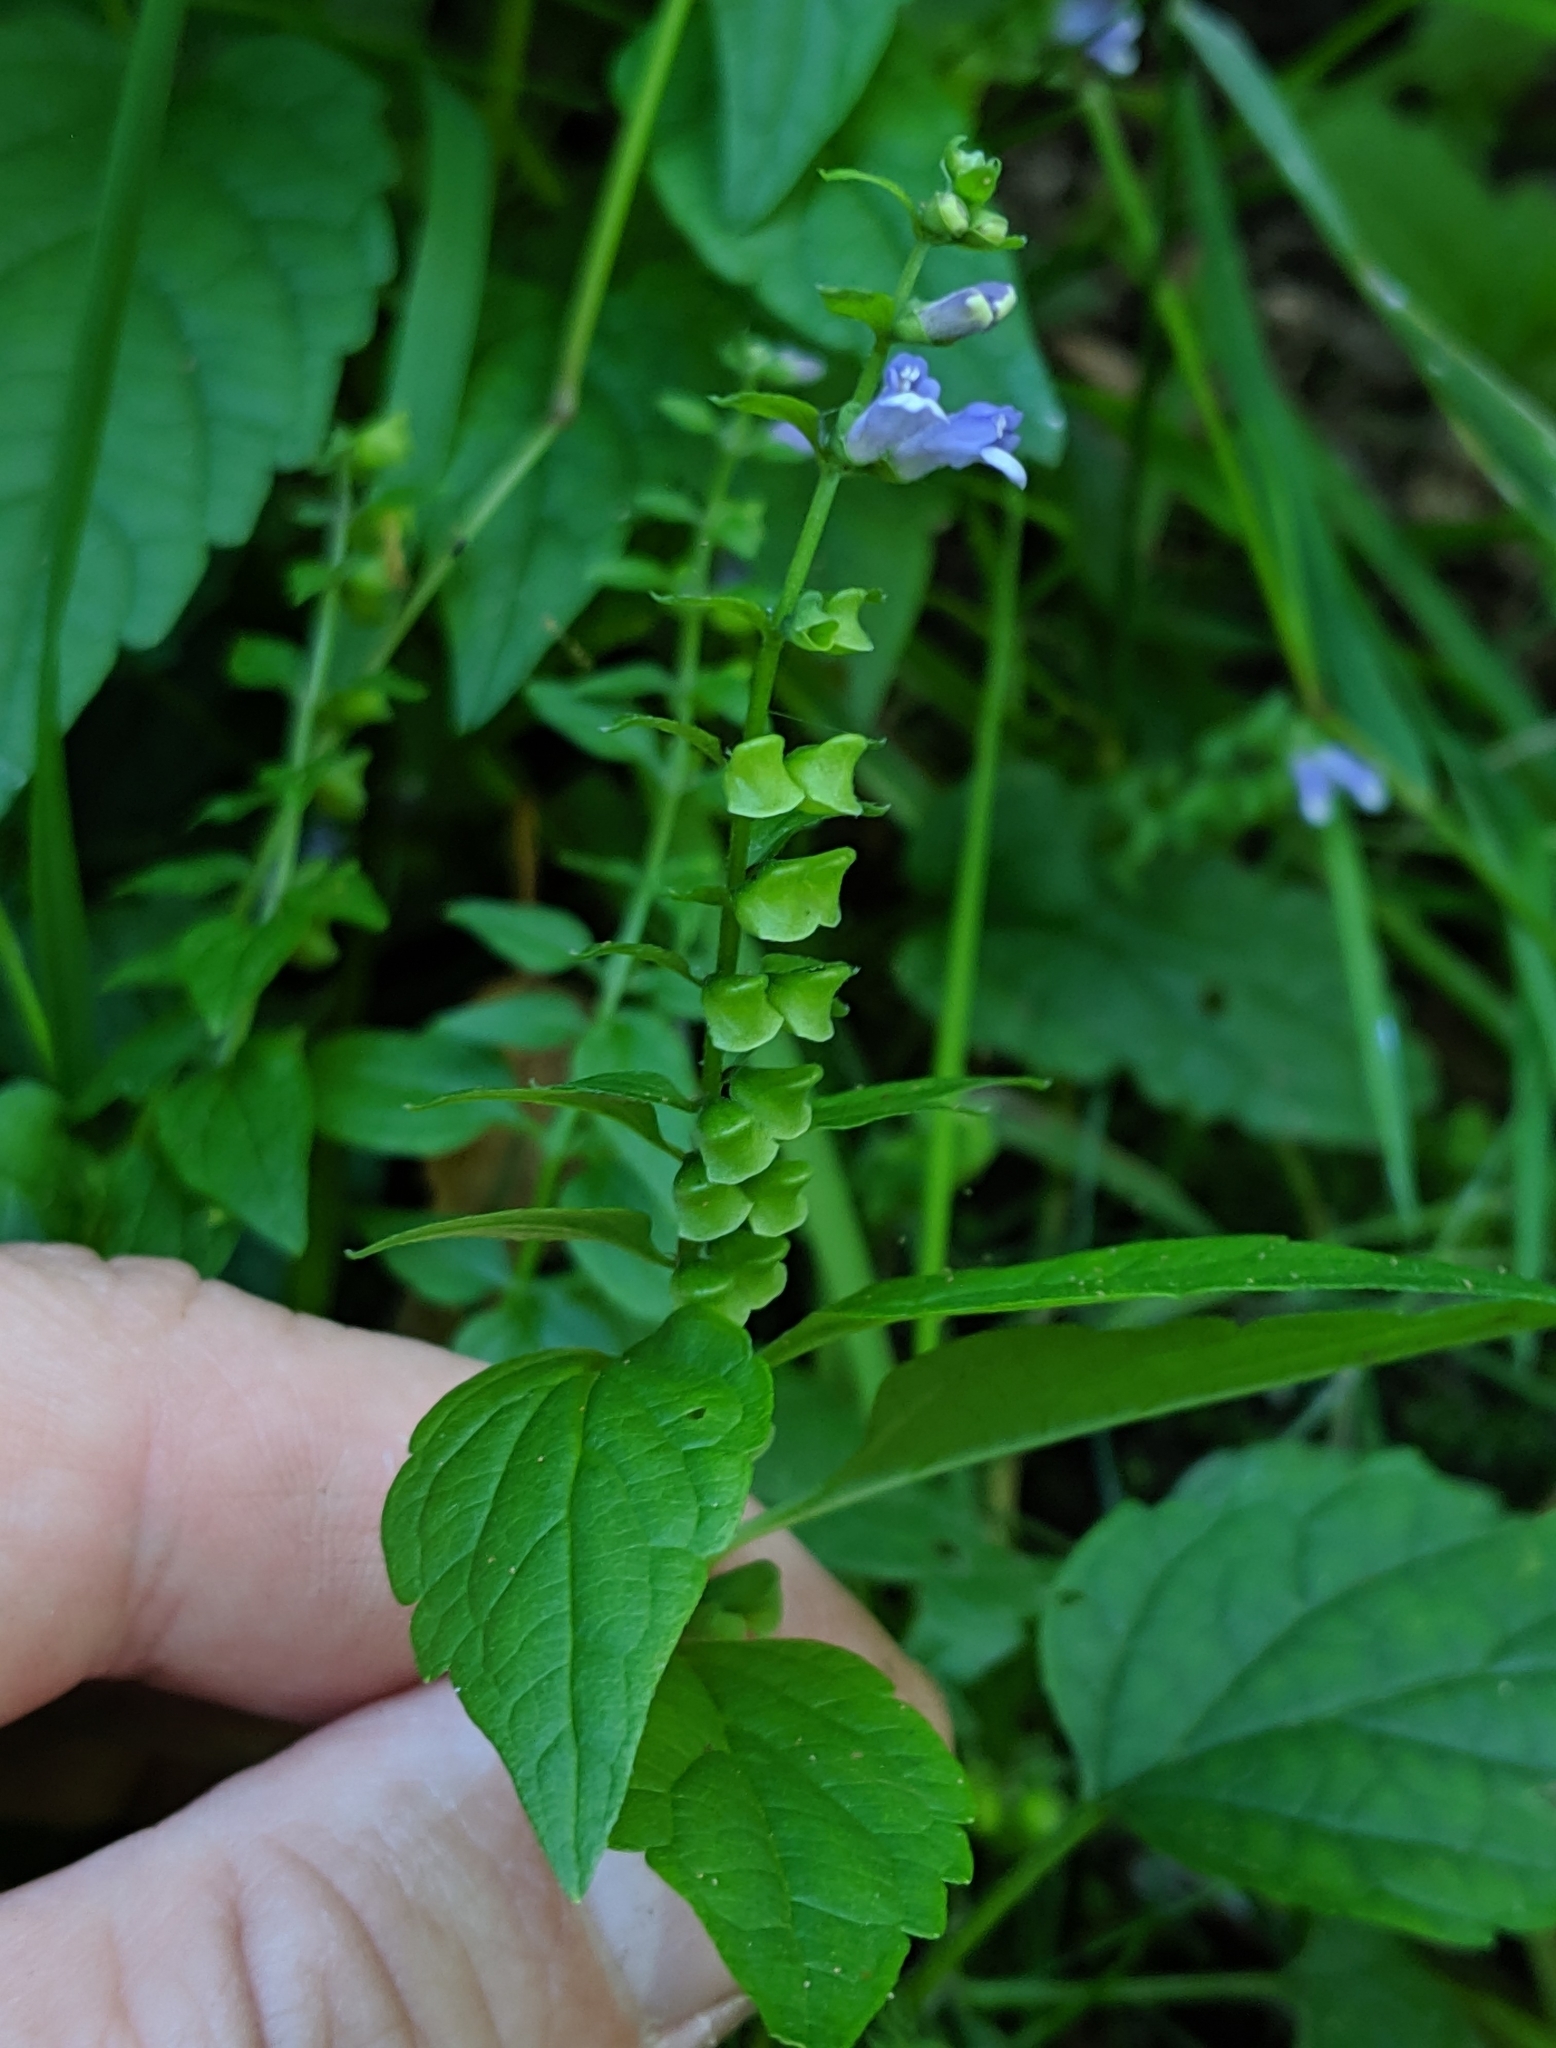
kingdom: Plantae
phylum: Tracheophyta
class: Magnoliopsida
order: Lamiales
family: Lamiaceae
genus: Scutellaria
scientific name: Scutellaria lateriflora
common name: Blue skullcap
